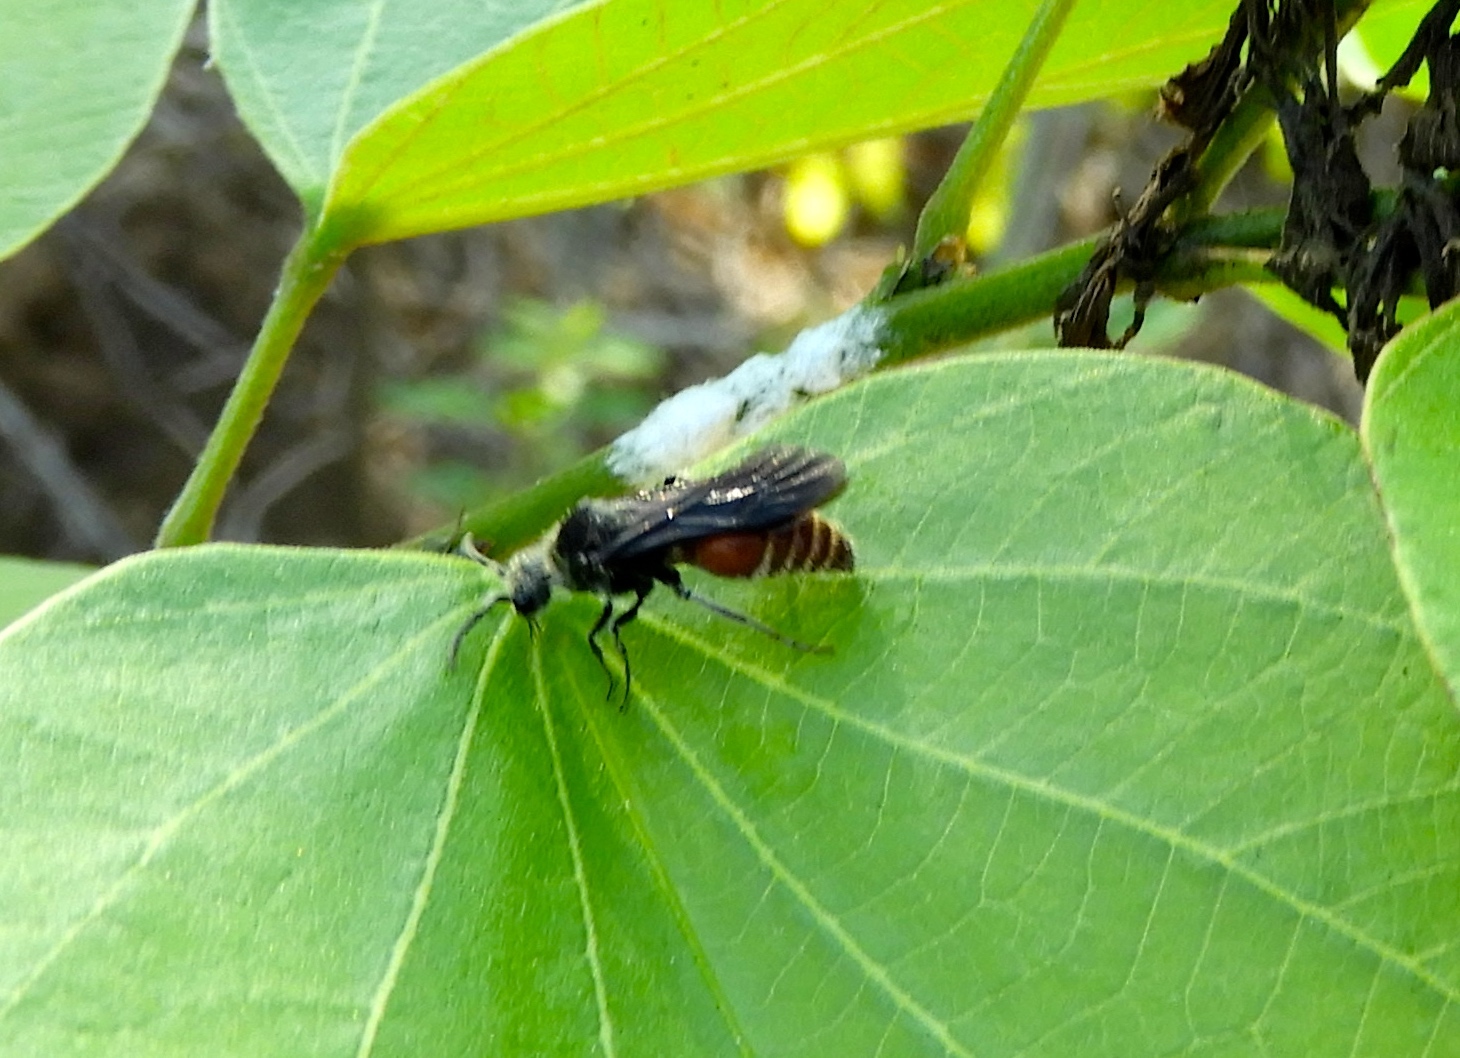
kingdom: Animalia
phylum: Arthropoda
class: Insecta
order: Hymenoptera
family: Mutillidae
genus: Pseudomethoca
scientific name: Pseudomethoca
